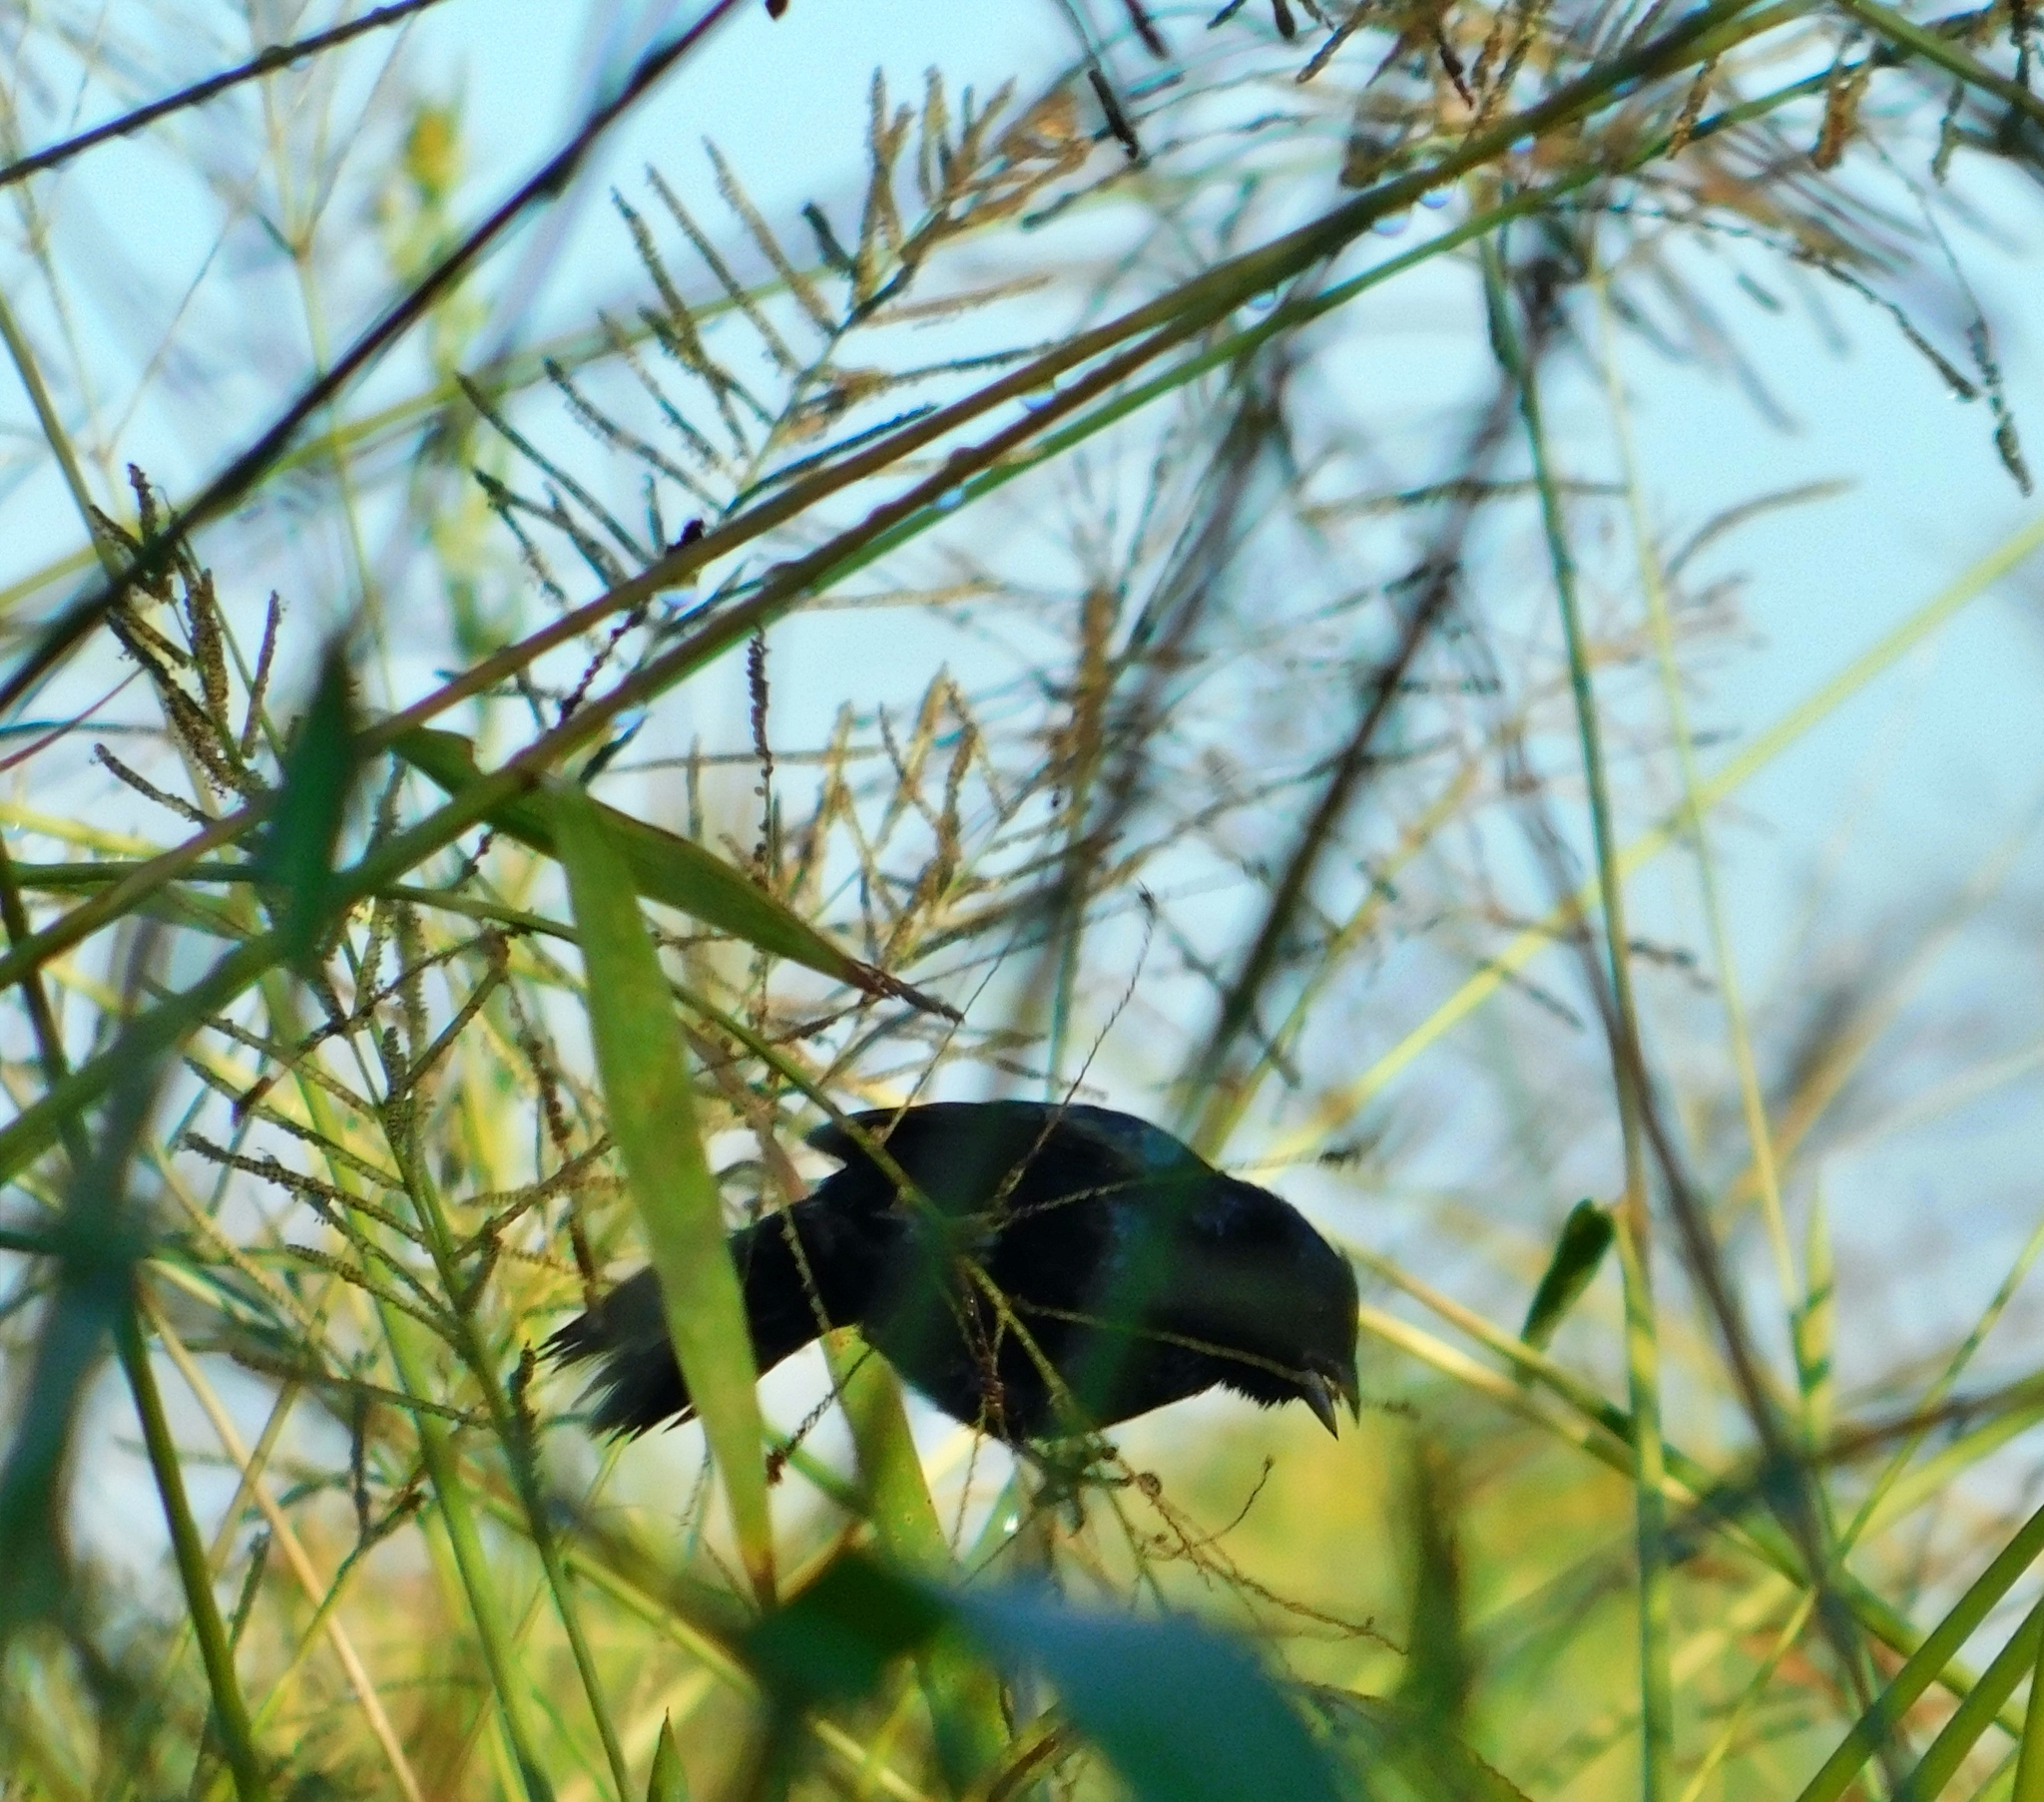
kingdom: Animalia
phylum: Chordata
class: Aves
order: Passeriformes
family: Thraupidae
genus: Volatinia
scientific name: Volatinia jacarina
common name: Blue-black grassquit
